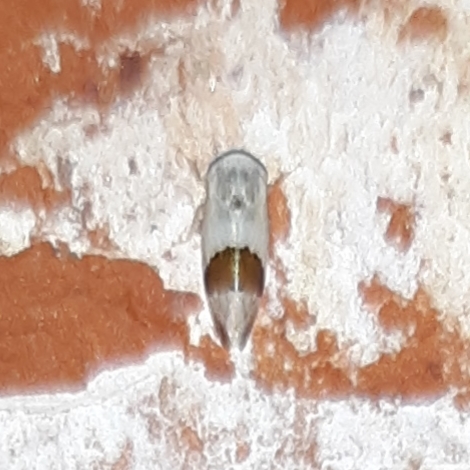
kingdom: Animalia
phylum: Arthropoda
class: Insecta
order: Hemiptera
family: Cicadellidae
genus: Norvellina
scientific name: Norvellina seminuda
